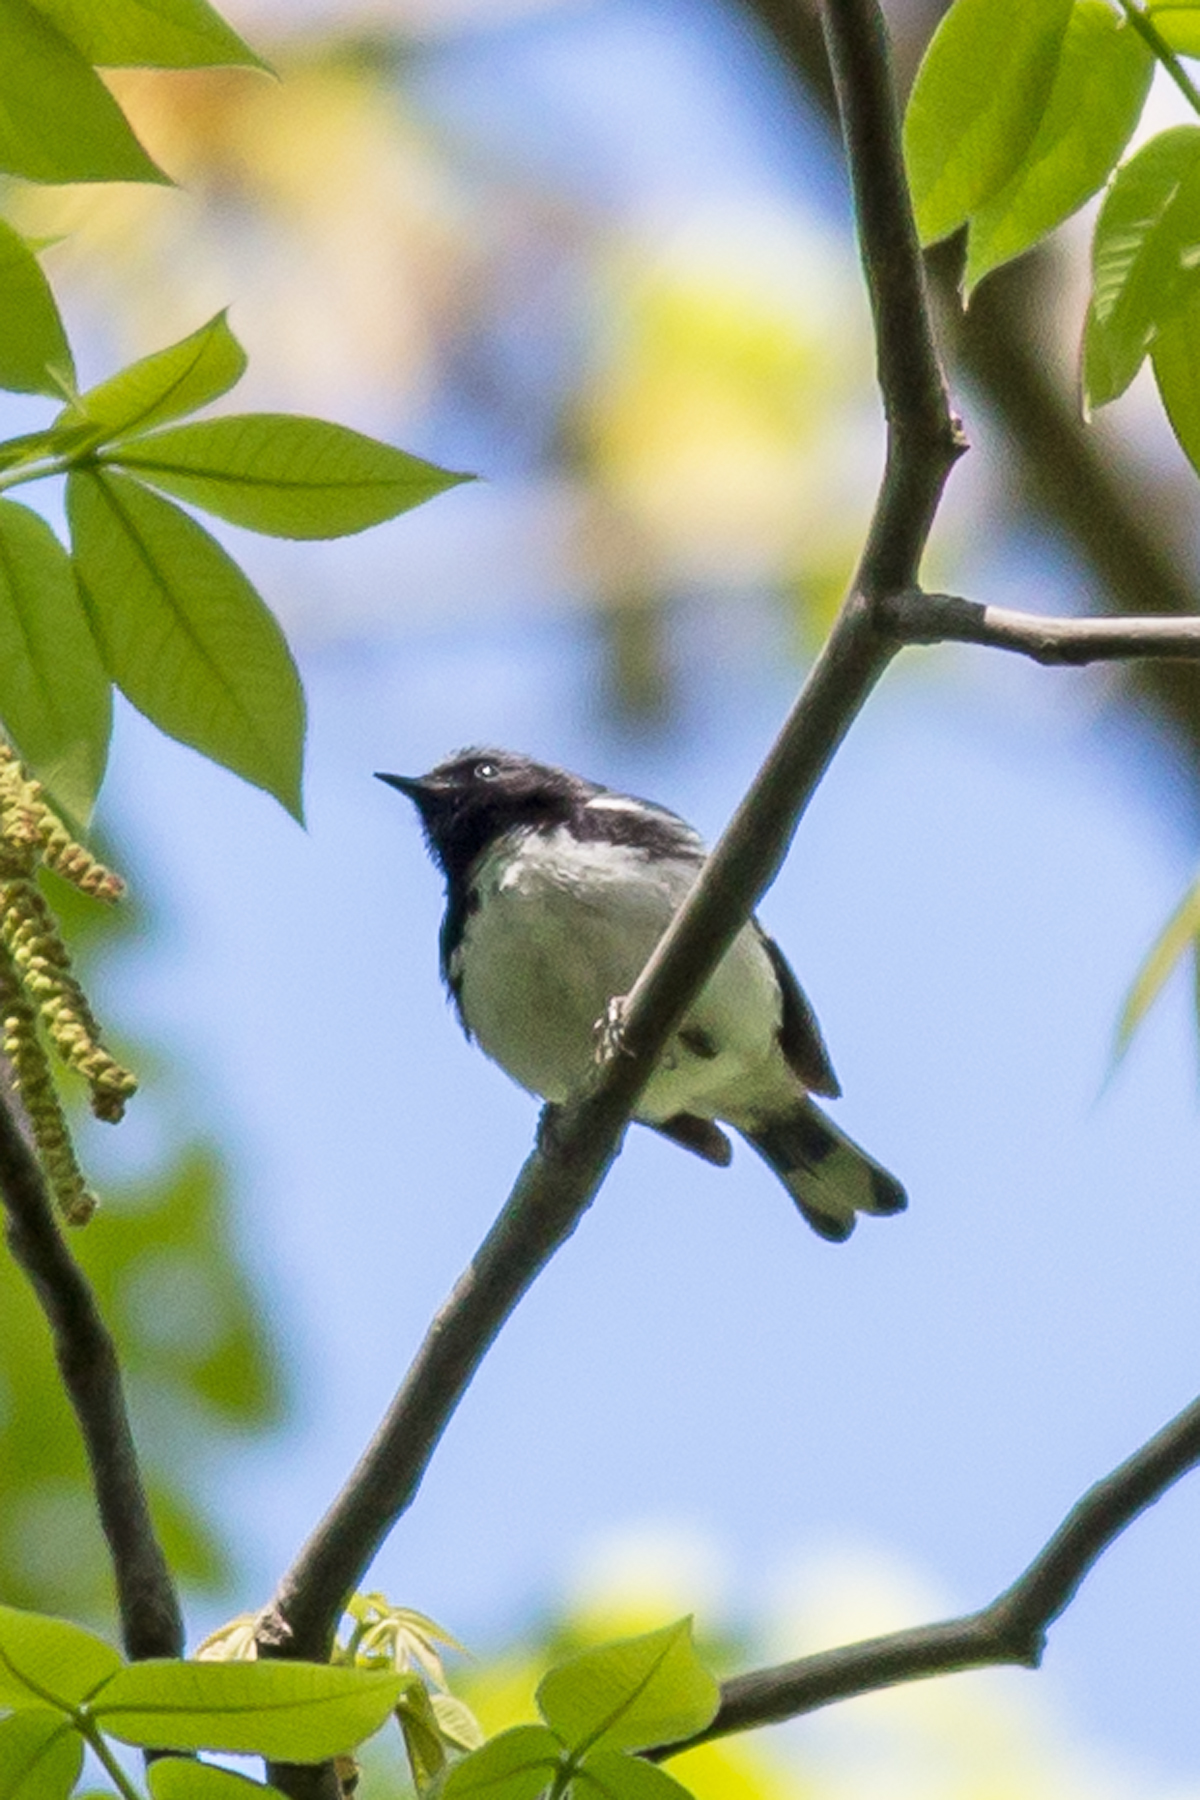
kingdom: Animalia
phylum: Chordata
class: Aves
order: Passeriformes
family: Parulidae
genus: Setophaga
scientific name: Setophaga caerulescens
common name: Black-throated blue warbler
